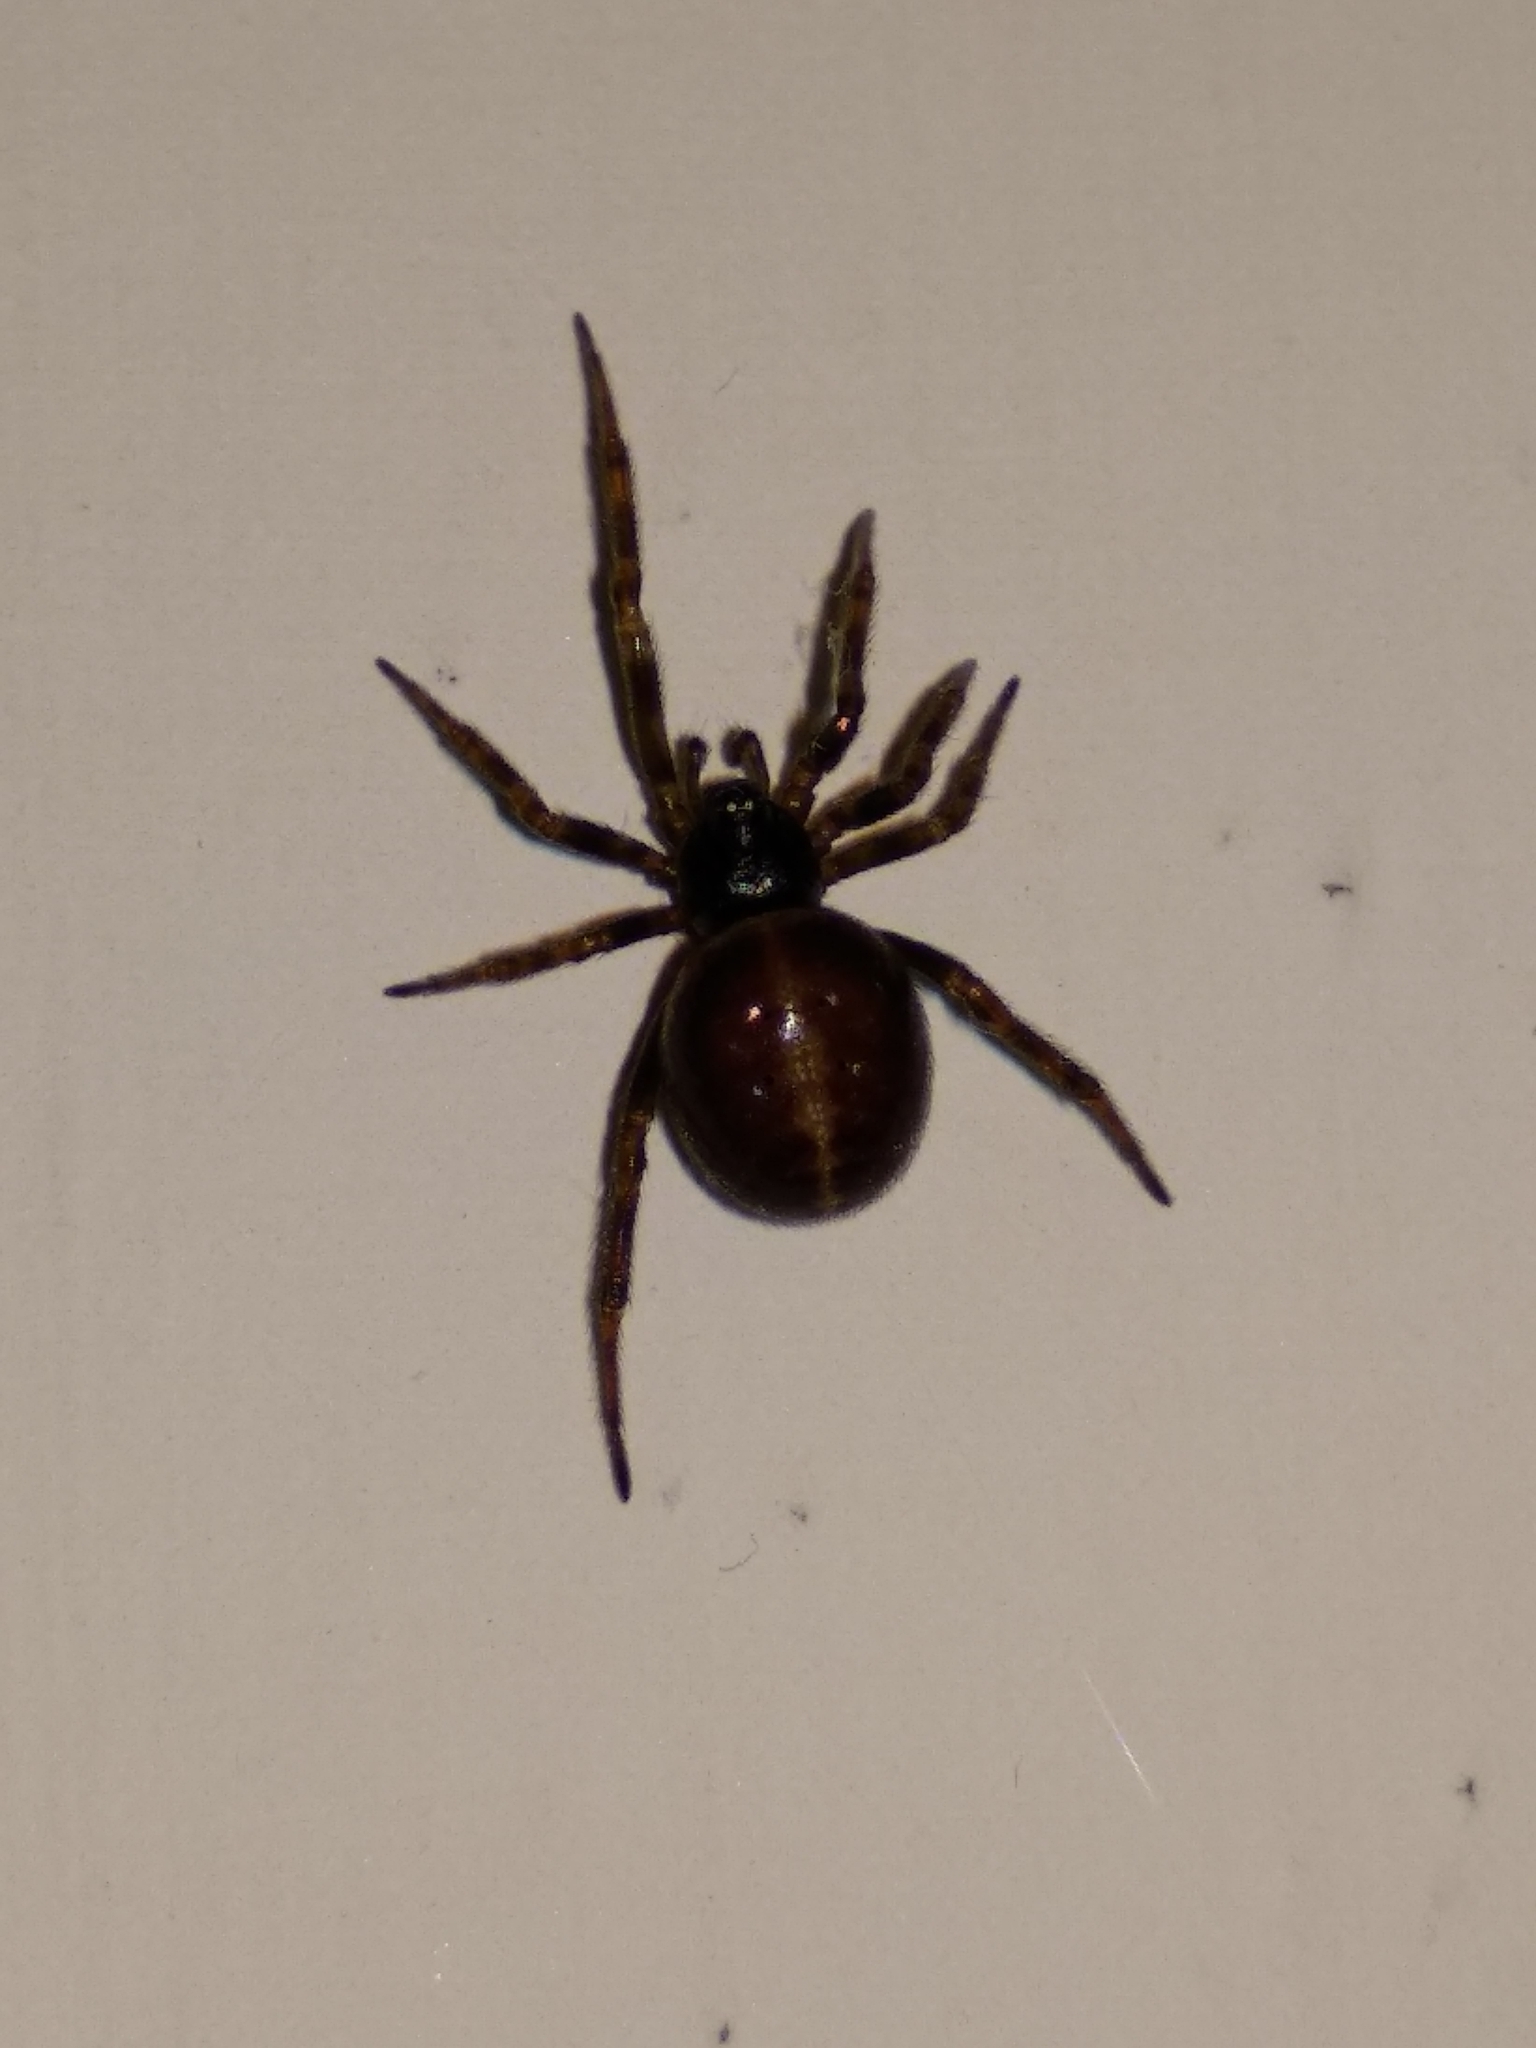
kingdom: Animalia
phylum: Arthropoda
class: Arachnida
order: Araneae
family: Theridiidae
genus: Steatoda
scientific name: Steatoda bipunctata
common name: False widow
